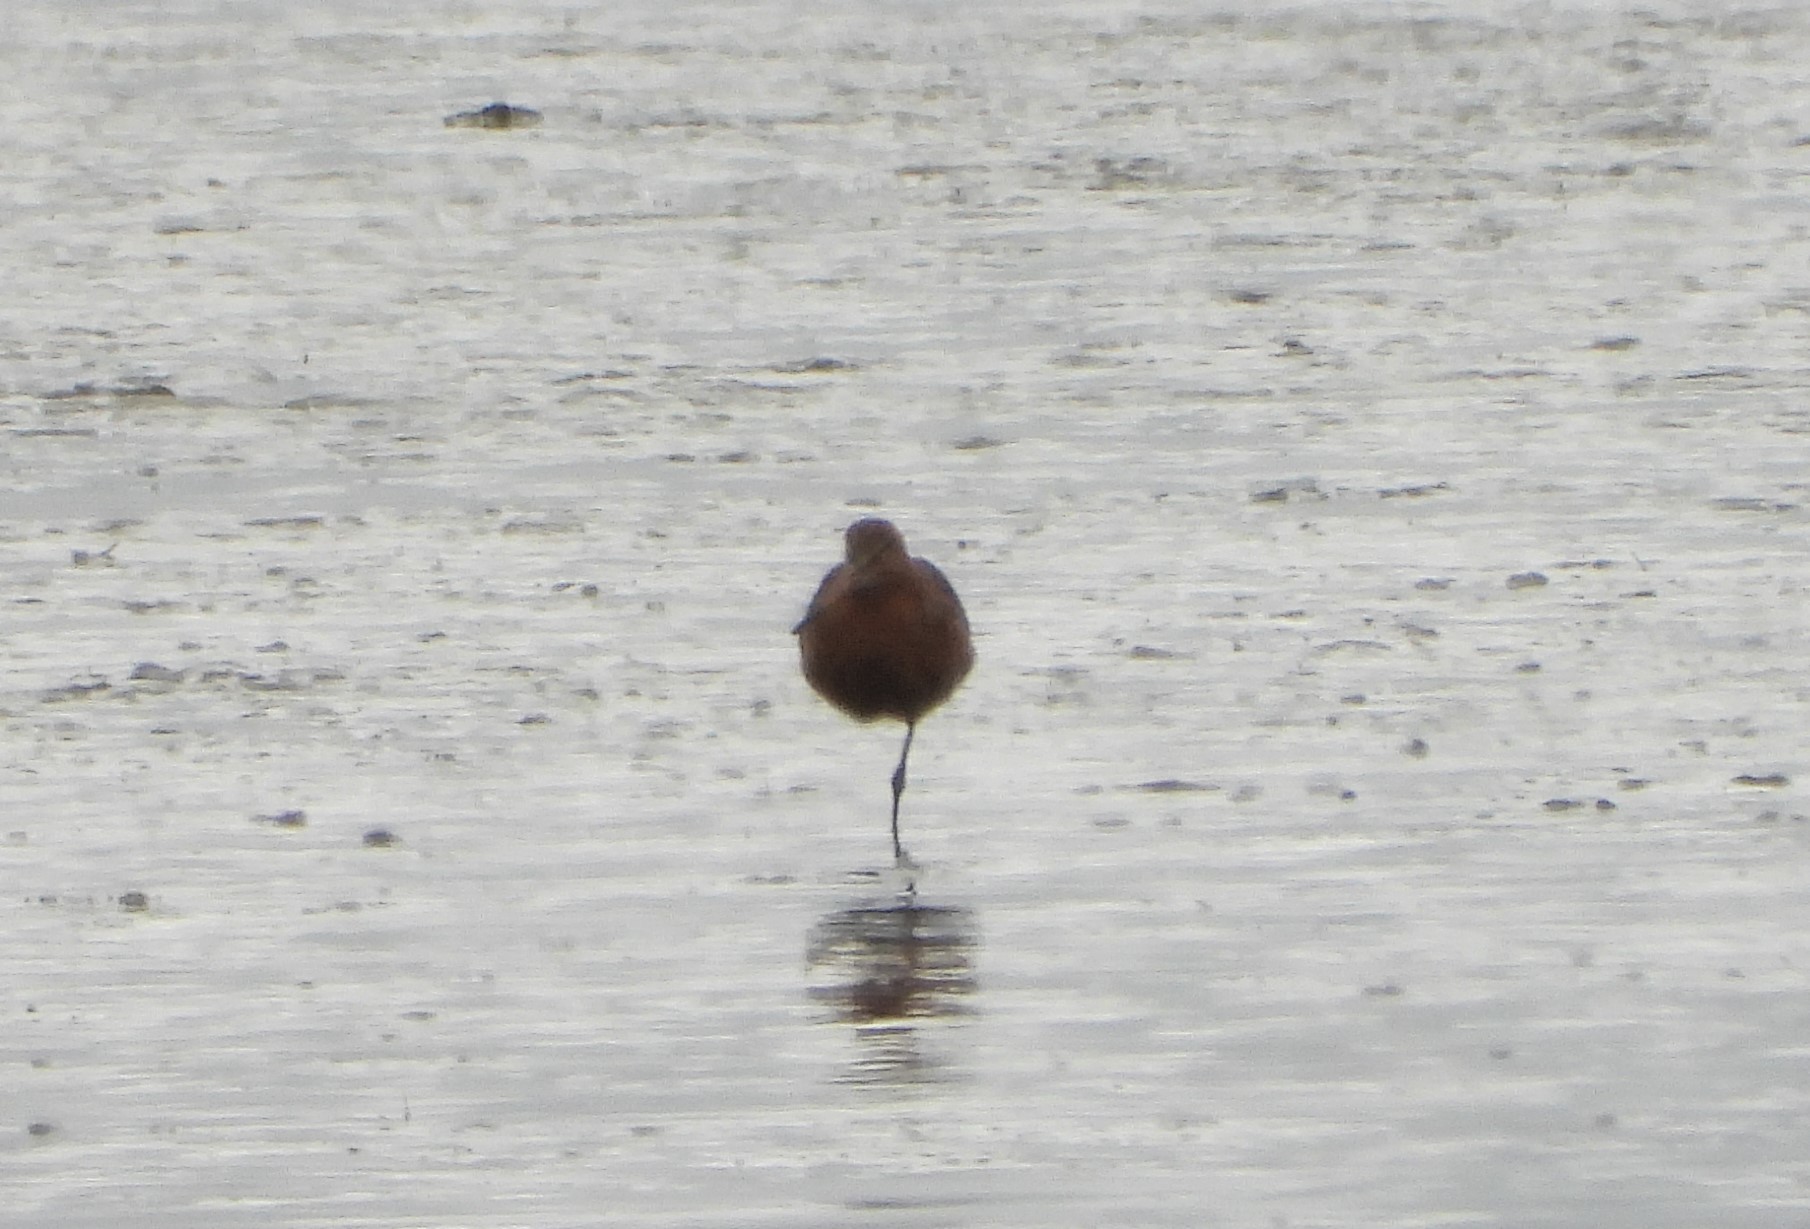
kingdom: Animalia
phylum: Chordata
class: Aves
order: Charadriiformes
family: Scolopacidae
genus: Limosa
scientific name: Limosa lapponica
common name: Bar-tailed godwit
